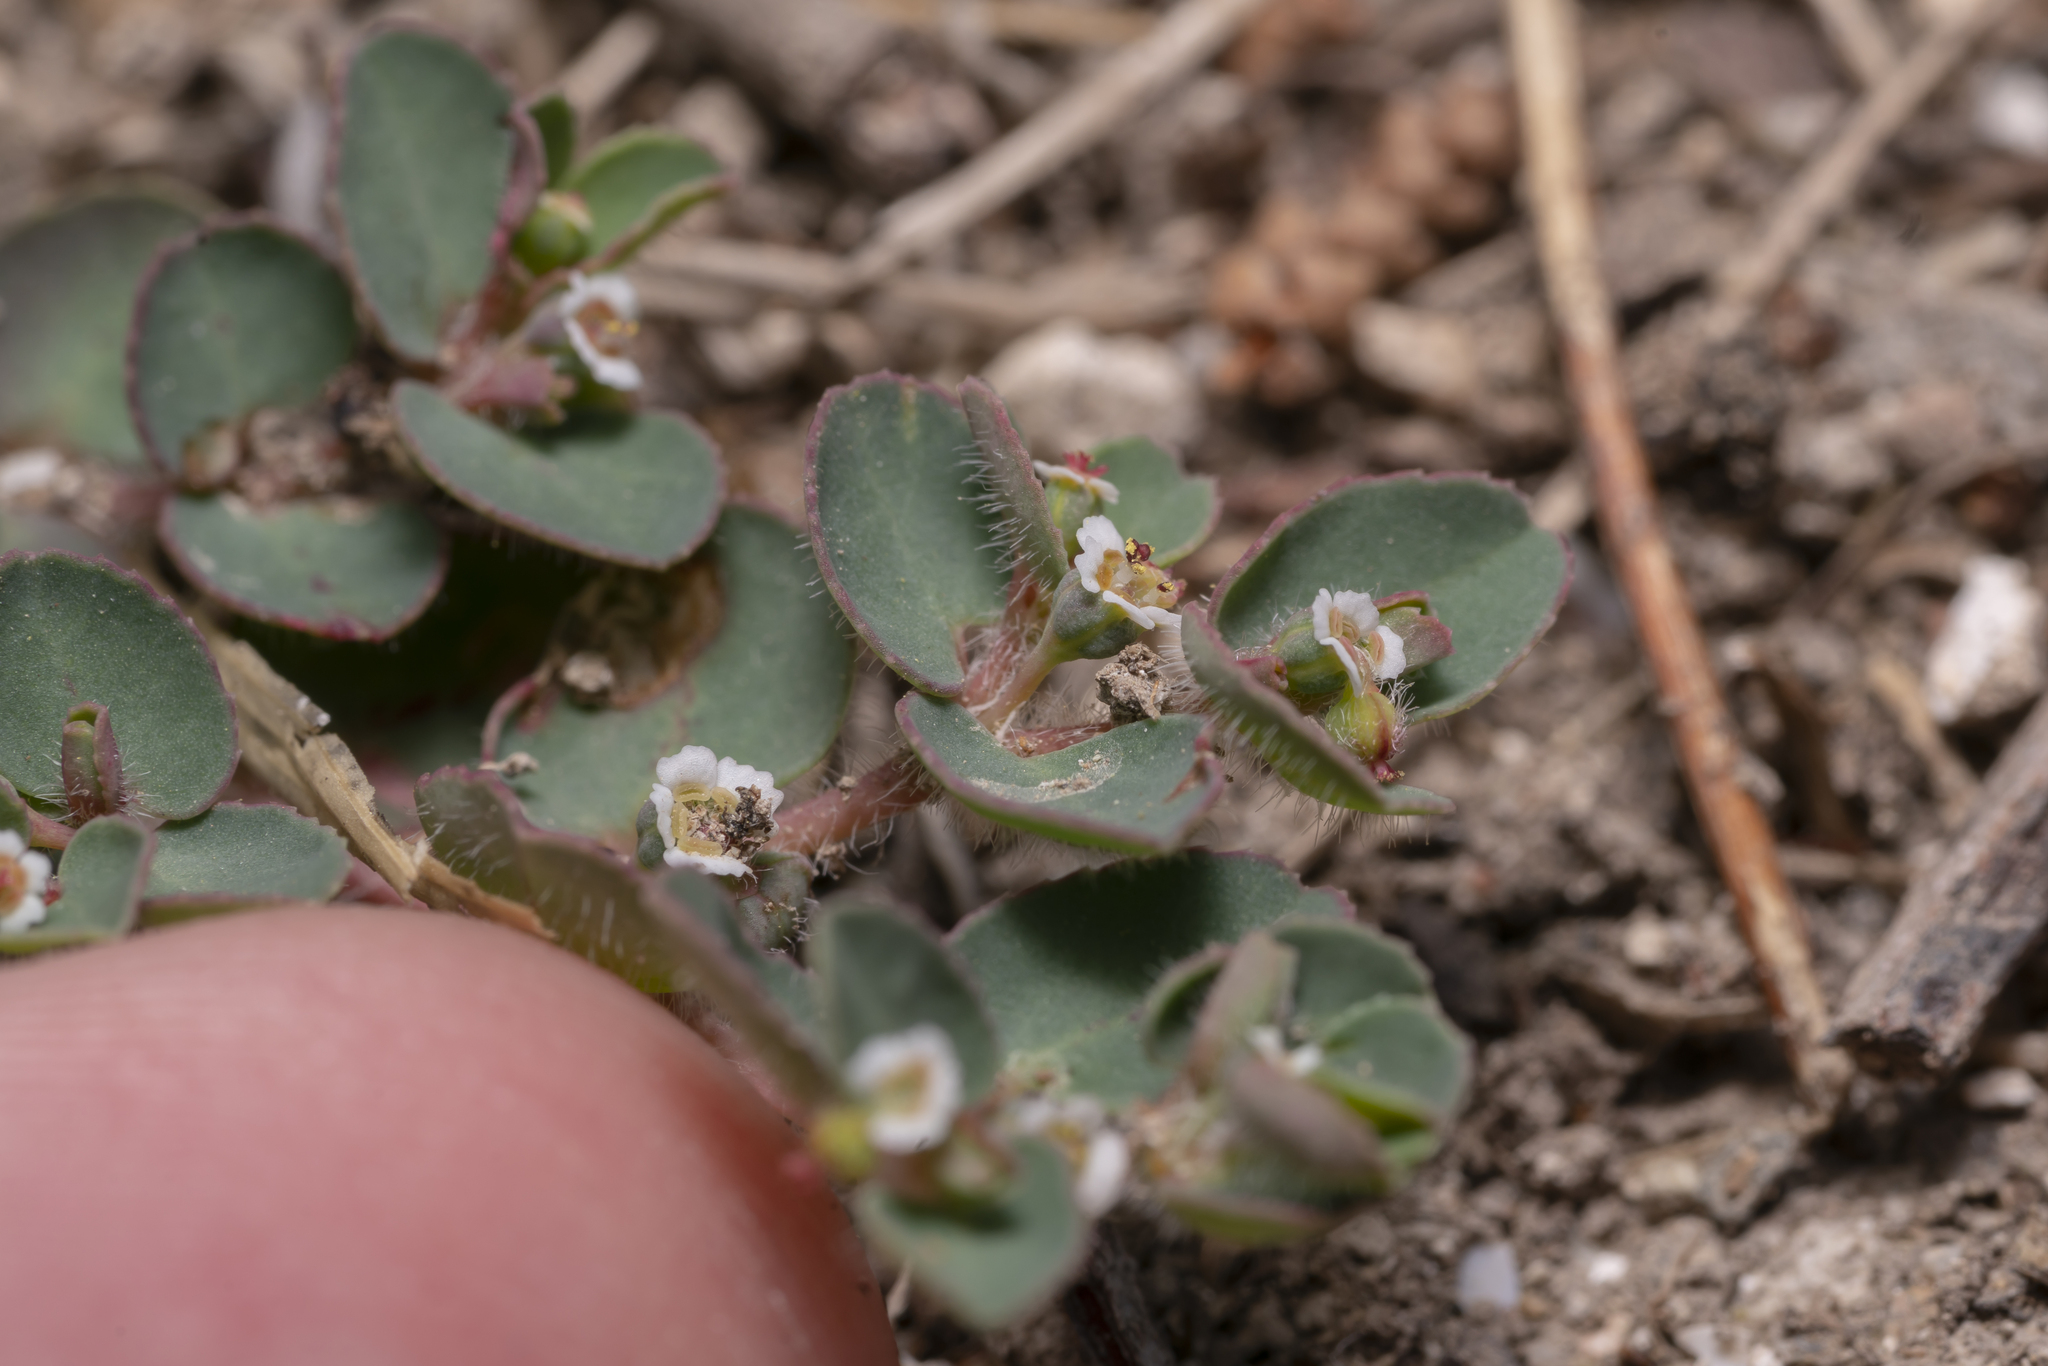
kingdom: Plantae
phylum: Tracheophyta
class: Magnoliopsida
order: Malpighiales
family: Euphorbiaceae
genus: Euphorbia
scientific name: Euphorbia chamaesyce
